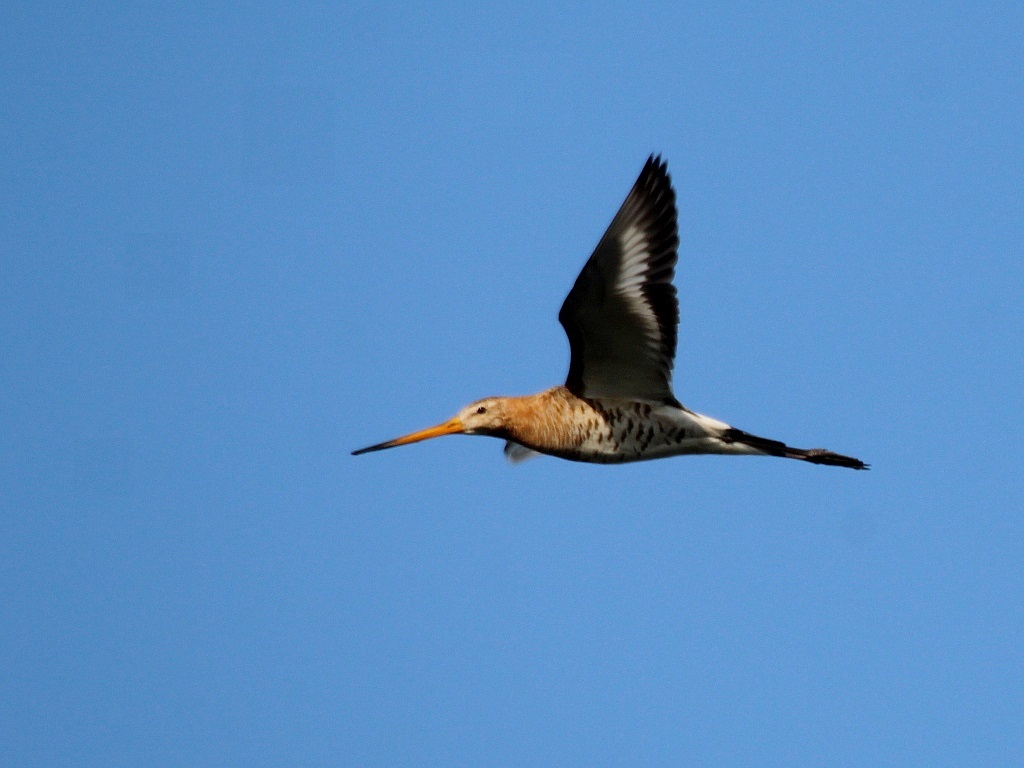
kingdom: Animalia
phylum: Chordata
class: Aves
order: Charadriiformes
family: Scolopacidae
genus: Limosa
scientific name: Limosa limosa
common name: Black-tailed godwit
